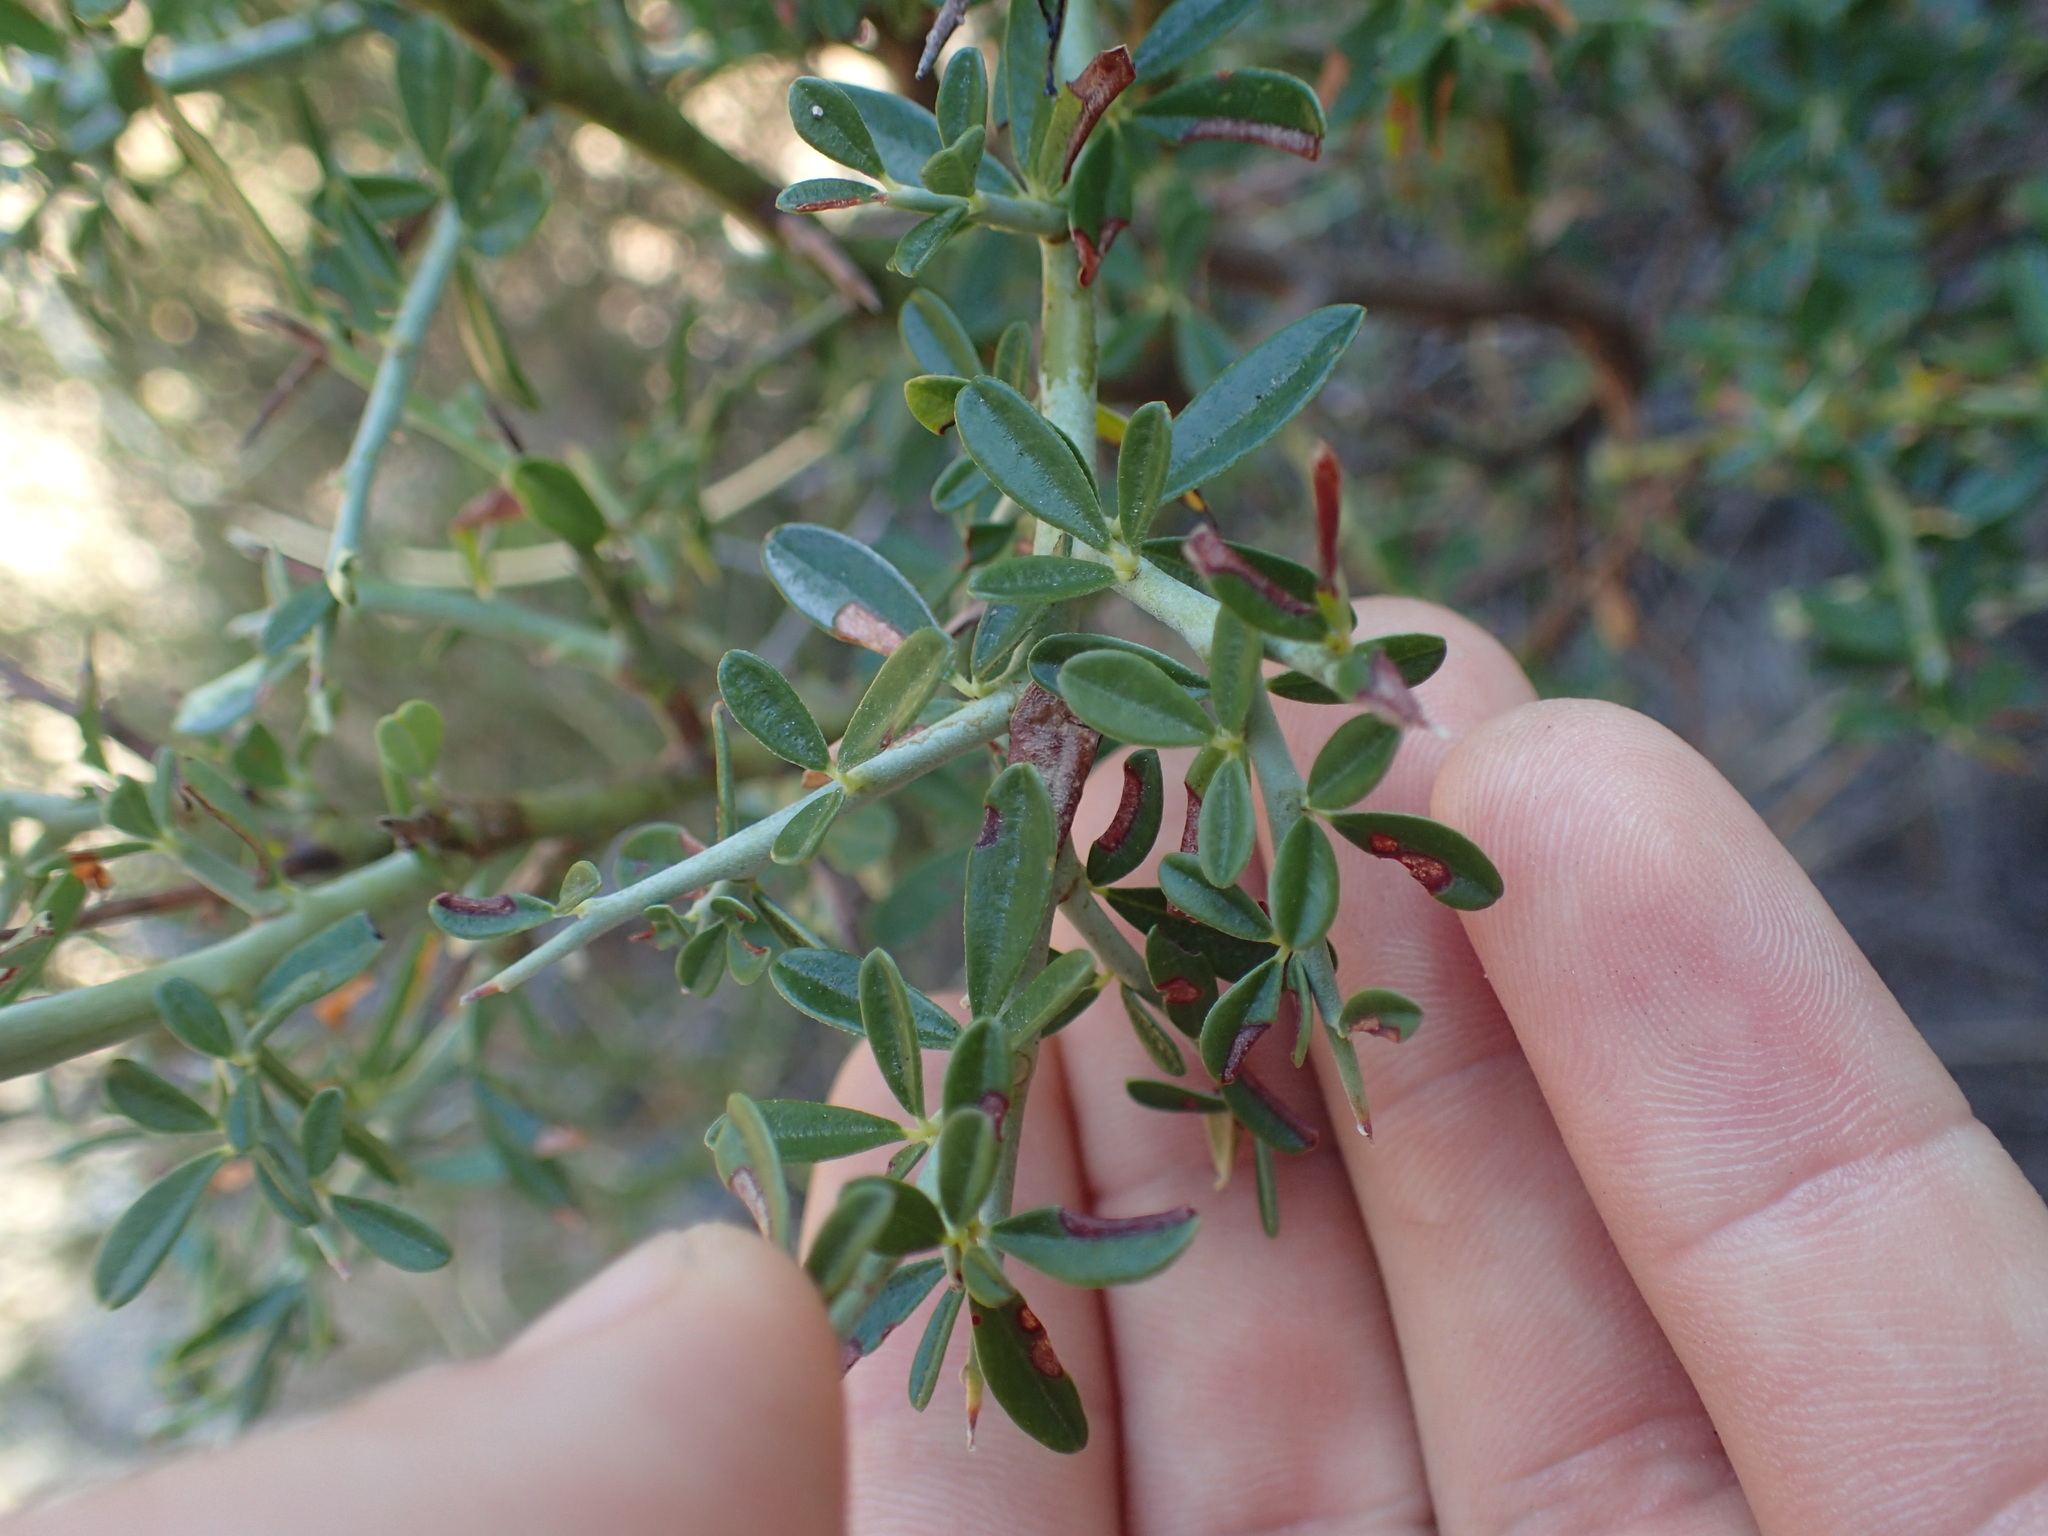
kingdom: Plantae
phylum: Tracheophyta
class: Magnoliopsida
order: Fabales
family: Fabaceae
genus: Pickeringia
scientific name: Pickeringia montana
